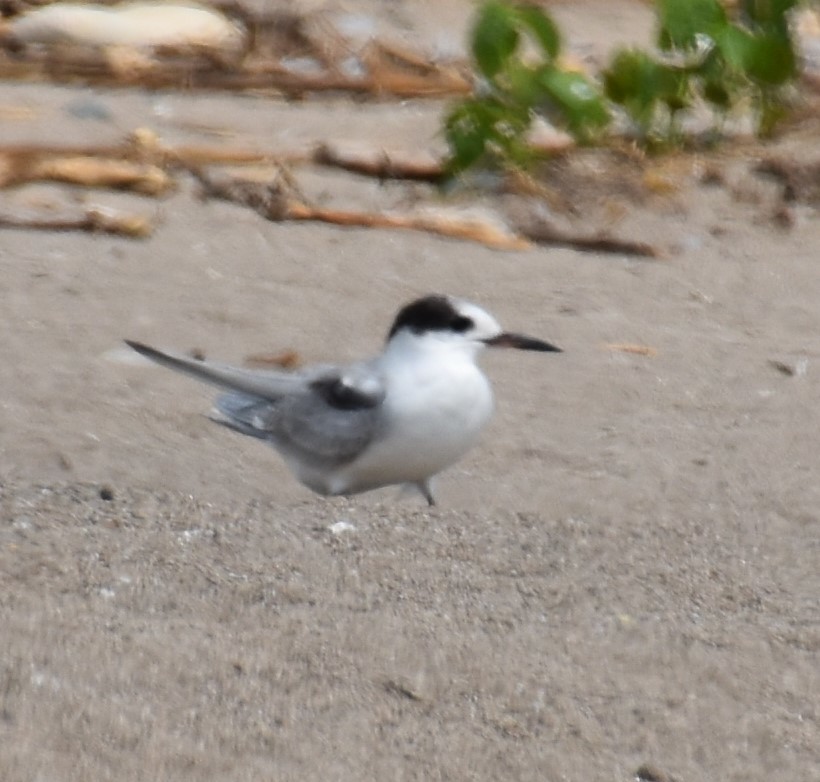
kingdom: Animalia
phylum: Chordata
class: Aves
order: Charadriiformes
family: Laridae
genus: Sterna
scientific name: Sterna hirundo
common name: Common tern
